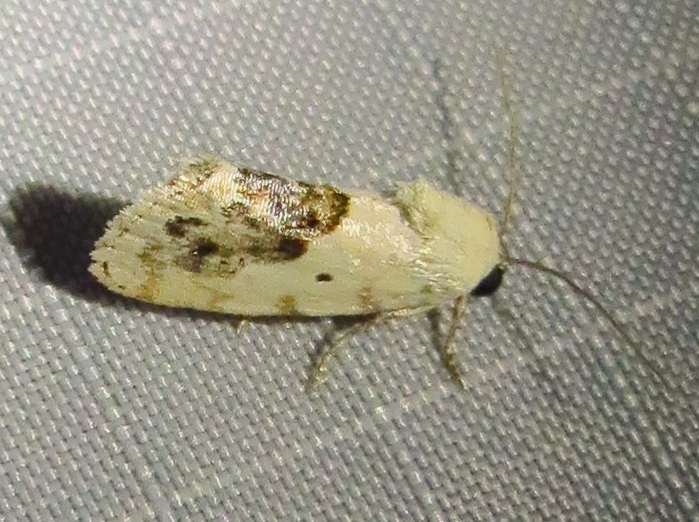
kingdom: Animalia
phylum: Arthropoda
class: Insecta
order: Lepidoptera
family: Noctuidae
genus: Acontia
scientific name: Acontia erastrioides
